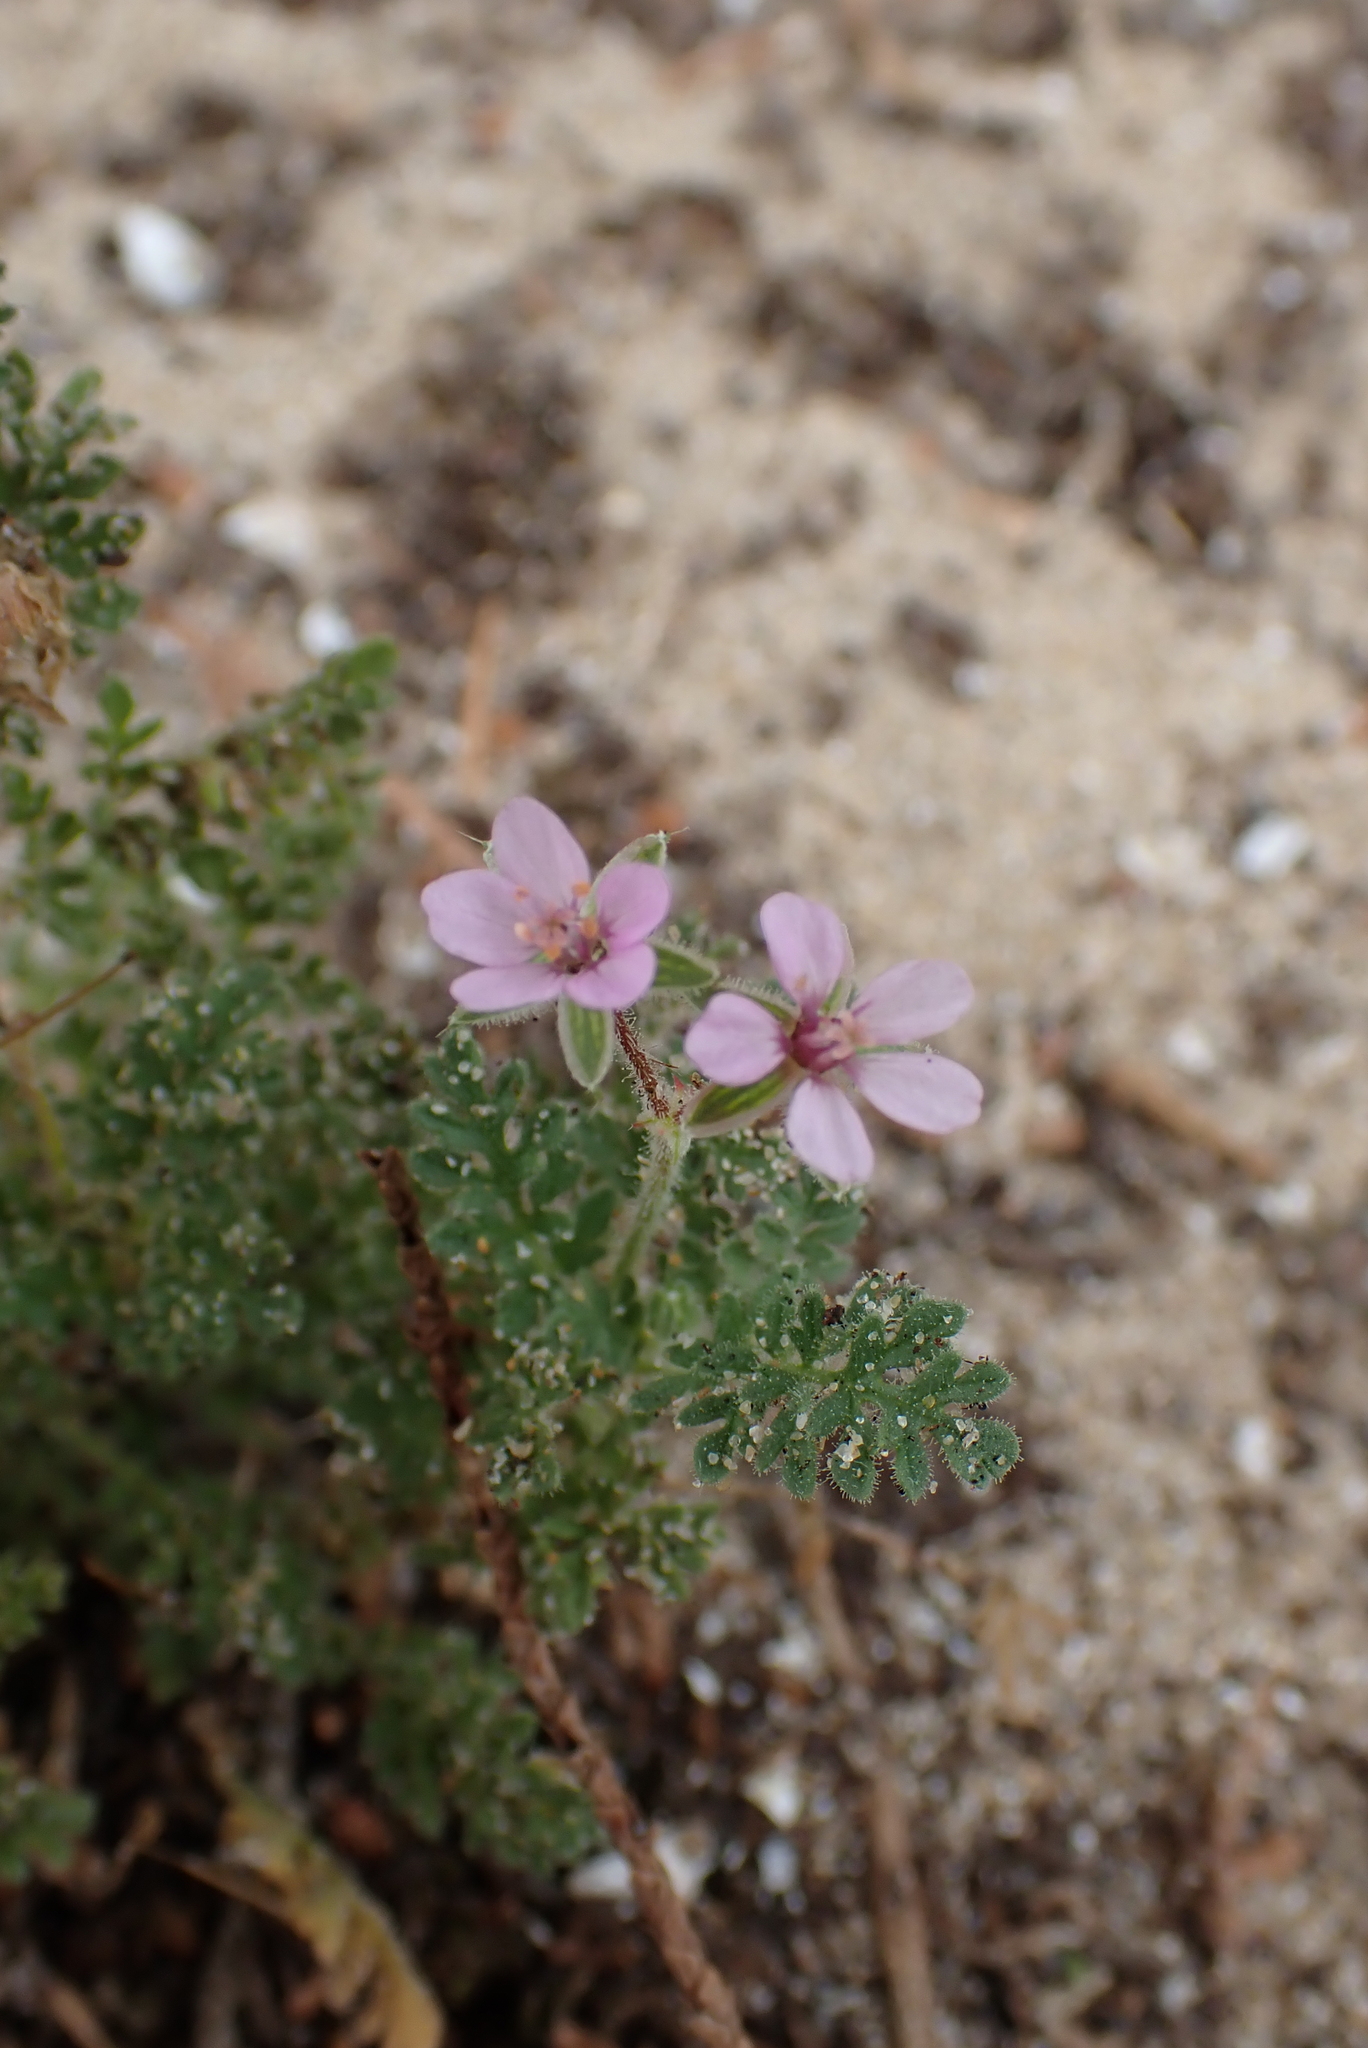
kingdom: Plantae
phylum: Tracheophyta
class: Magnoliopsida
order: Geraniales
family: Geraniaceae
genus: Erodium
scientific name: Erodium cicutarium
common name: Common stork's-bill
